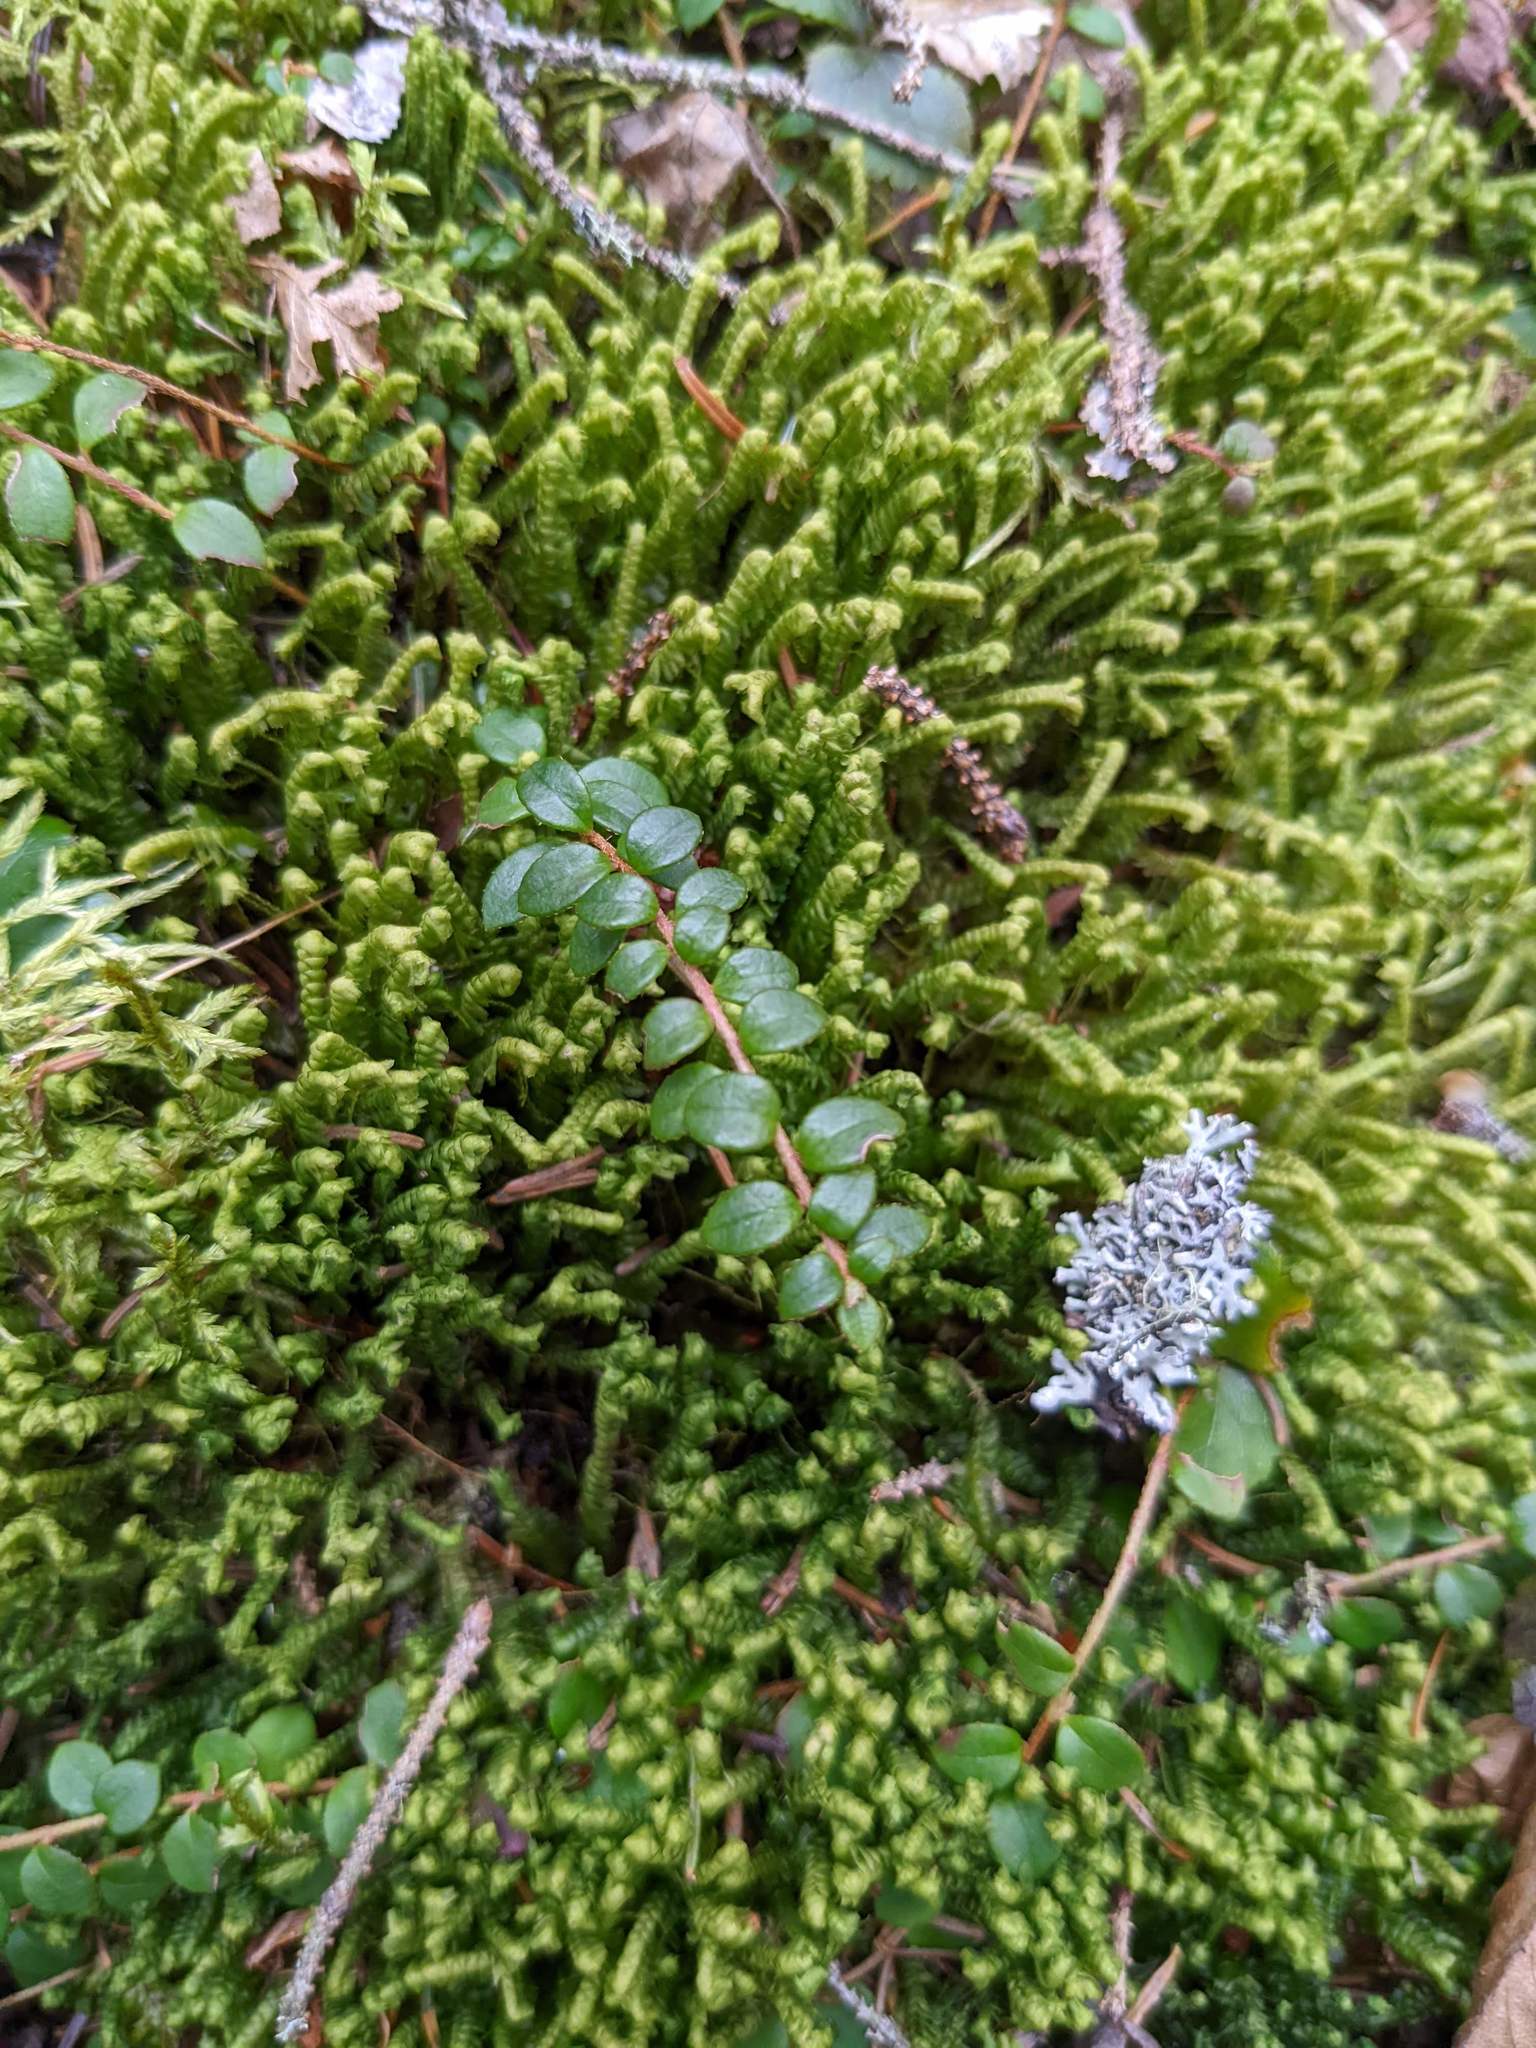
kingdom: Plantae
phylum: Tracheophyta
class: Magnoliopsida
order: Ericales
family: Ericaceae
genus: Gaultheria
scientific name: Gaultheria hispidula
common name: Cancer wintergreen
